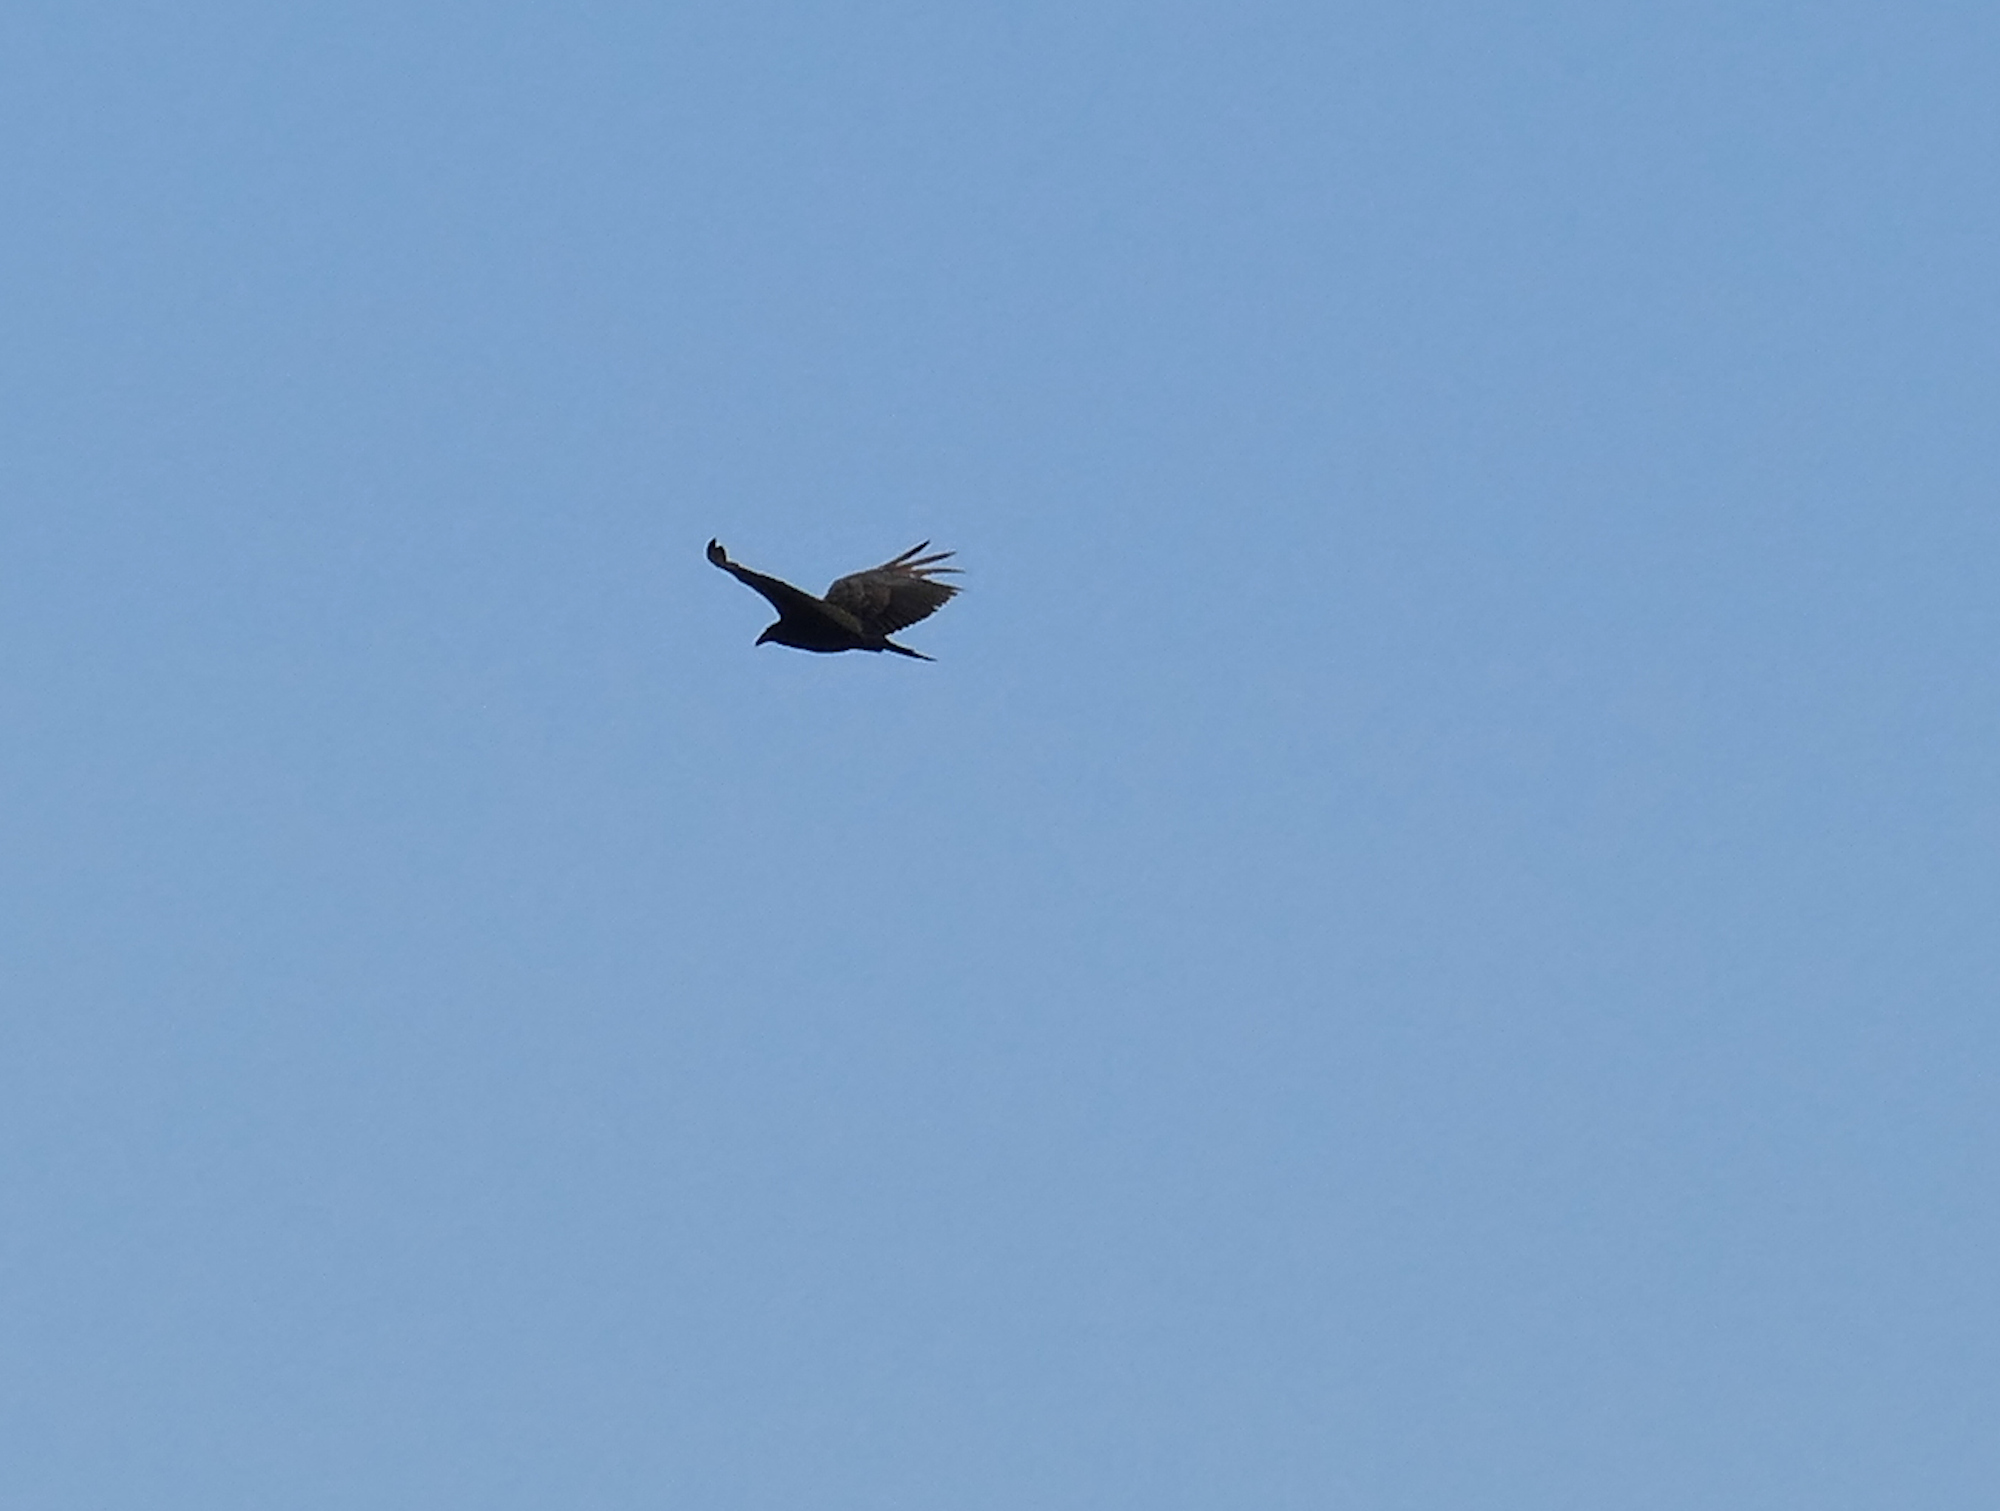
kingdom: Animalia
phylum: Chordata
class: Aves
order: Accipitriformes
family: Cathartidae
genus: Cathartes
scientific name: Cathartes aura
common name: Turkey vulture
